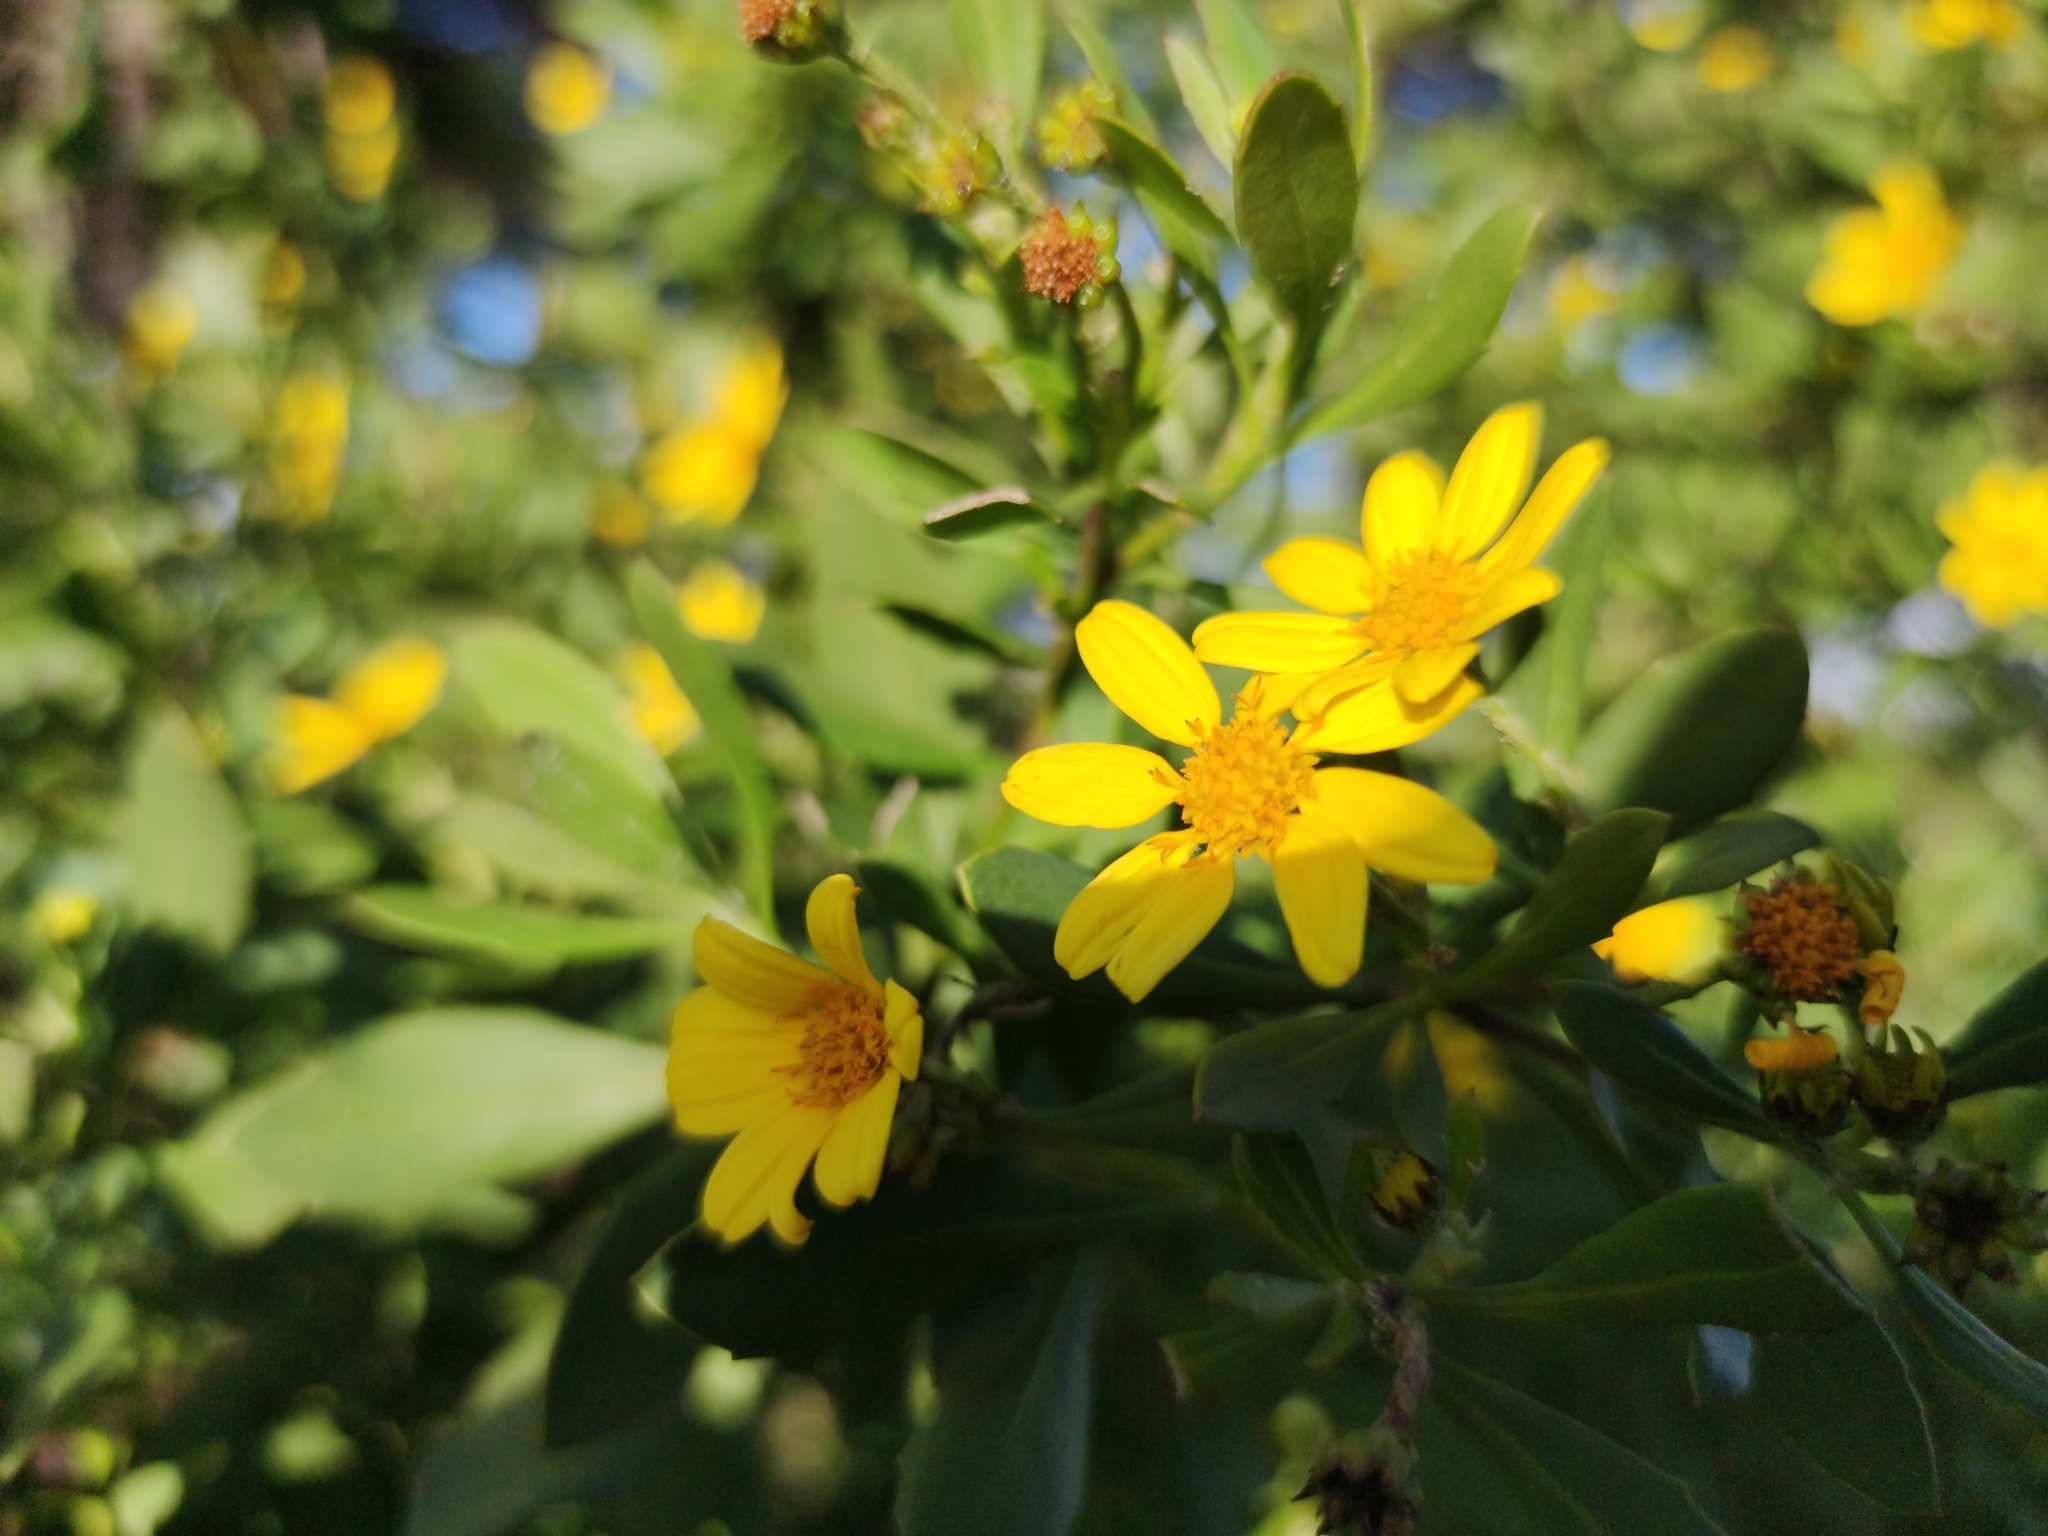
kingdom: Plantae
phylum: Tracheophyta
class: Magnoliopsida
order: Asterales
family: Asteraceae
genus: Osteospermum
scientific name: Osteospermum moniliferum
